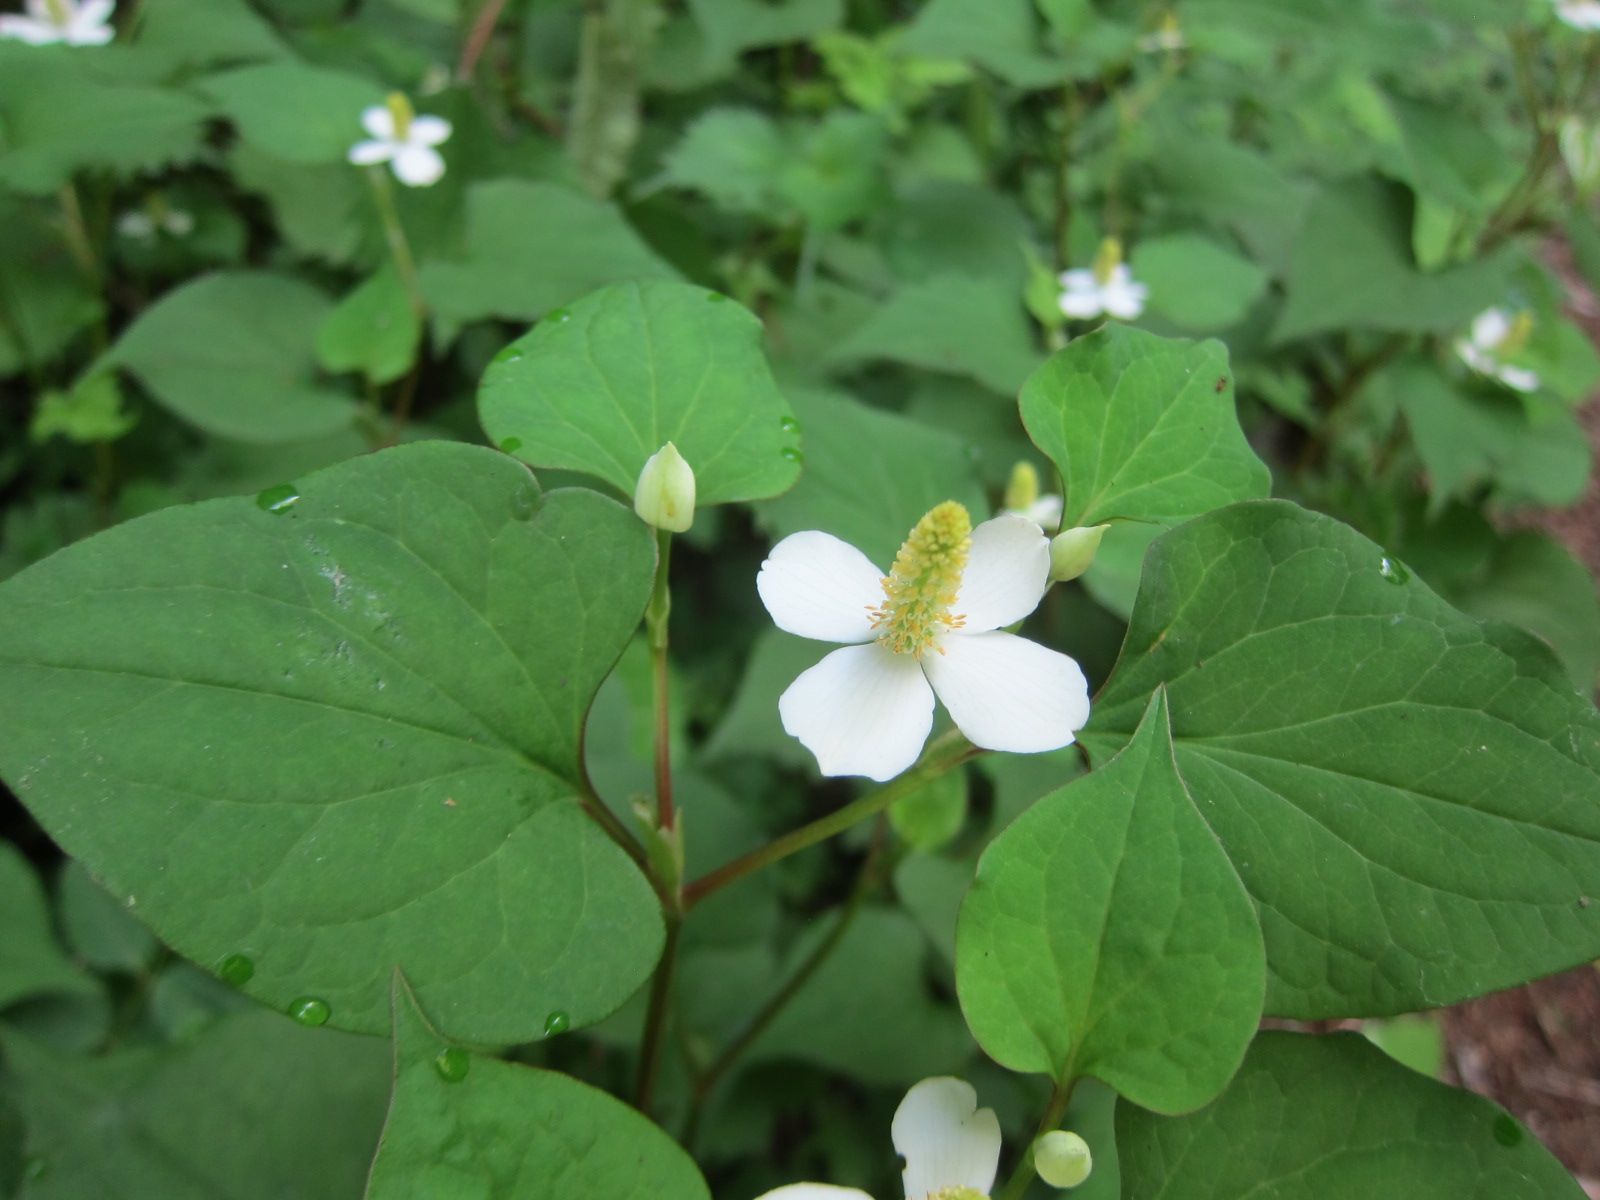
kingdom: Plantae
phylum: Tracheophyta
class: Magnoliopsida
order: Piperales
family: Saururaceae
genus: Houttuynia
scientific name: Houttuynia cordata
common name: Chameleon
